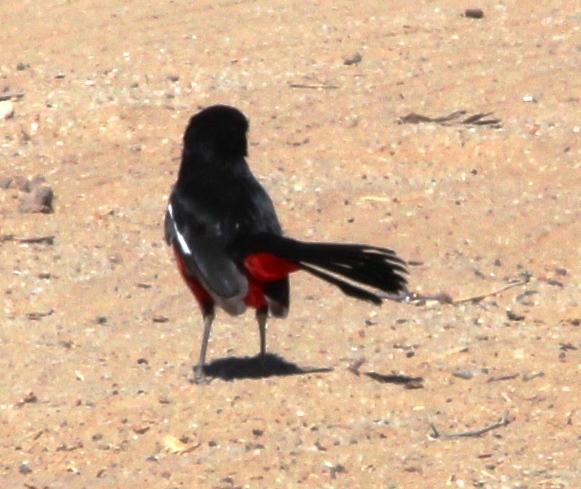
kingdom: Animalia
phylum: Chordata
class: Aves
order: Passeriformes
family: Malaconotidae
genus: Laniarius
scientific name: Laniarius atrococcineus
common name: Crimson-breasted shrike
